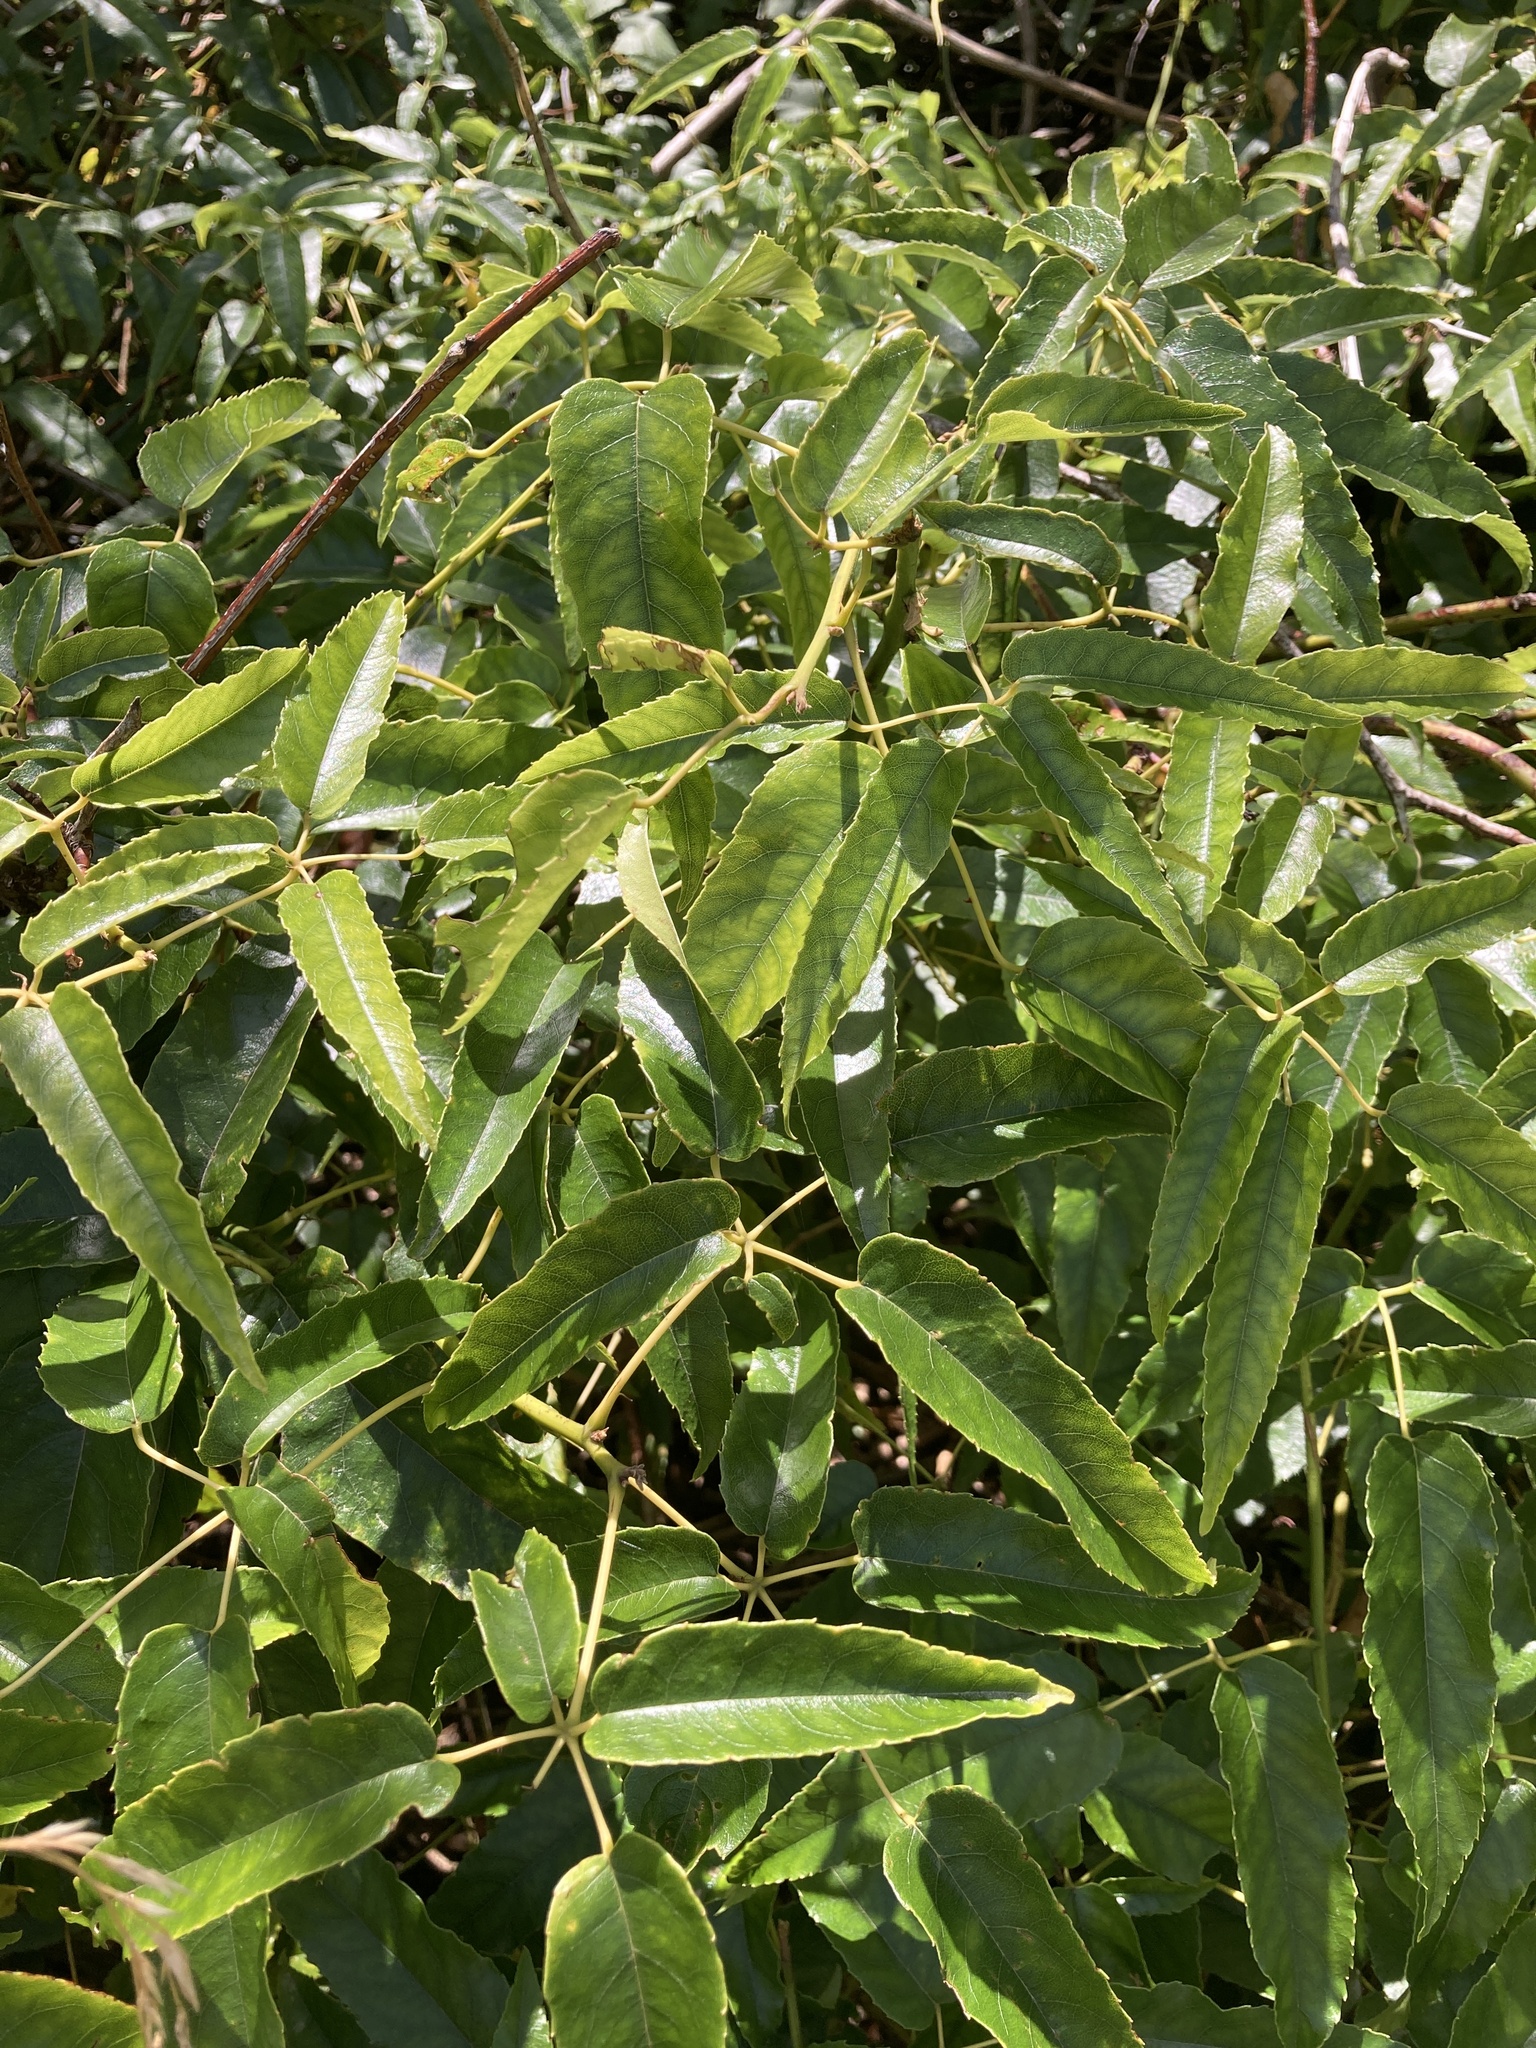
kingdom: Plantae
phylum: Tracheophyta
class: Magnoliopsida
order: Rosales
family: Rosaceae
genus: Rubus
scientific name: Rubus cissoides
